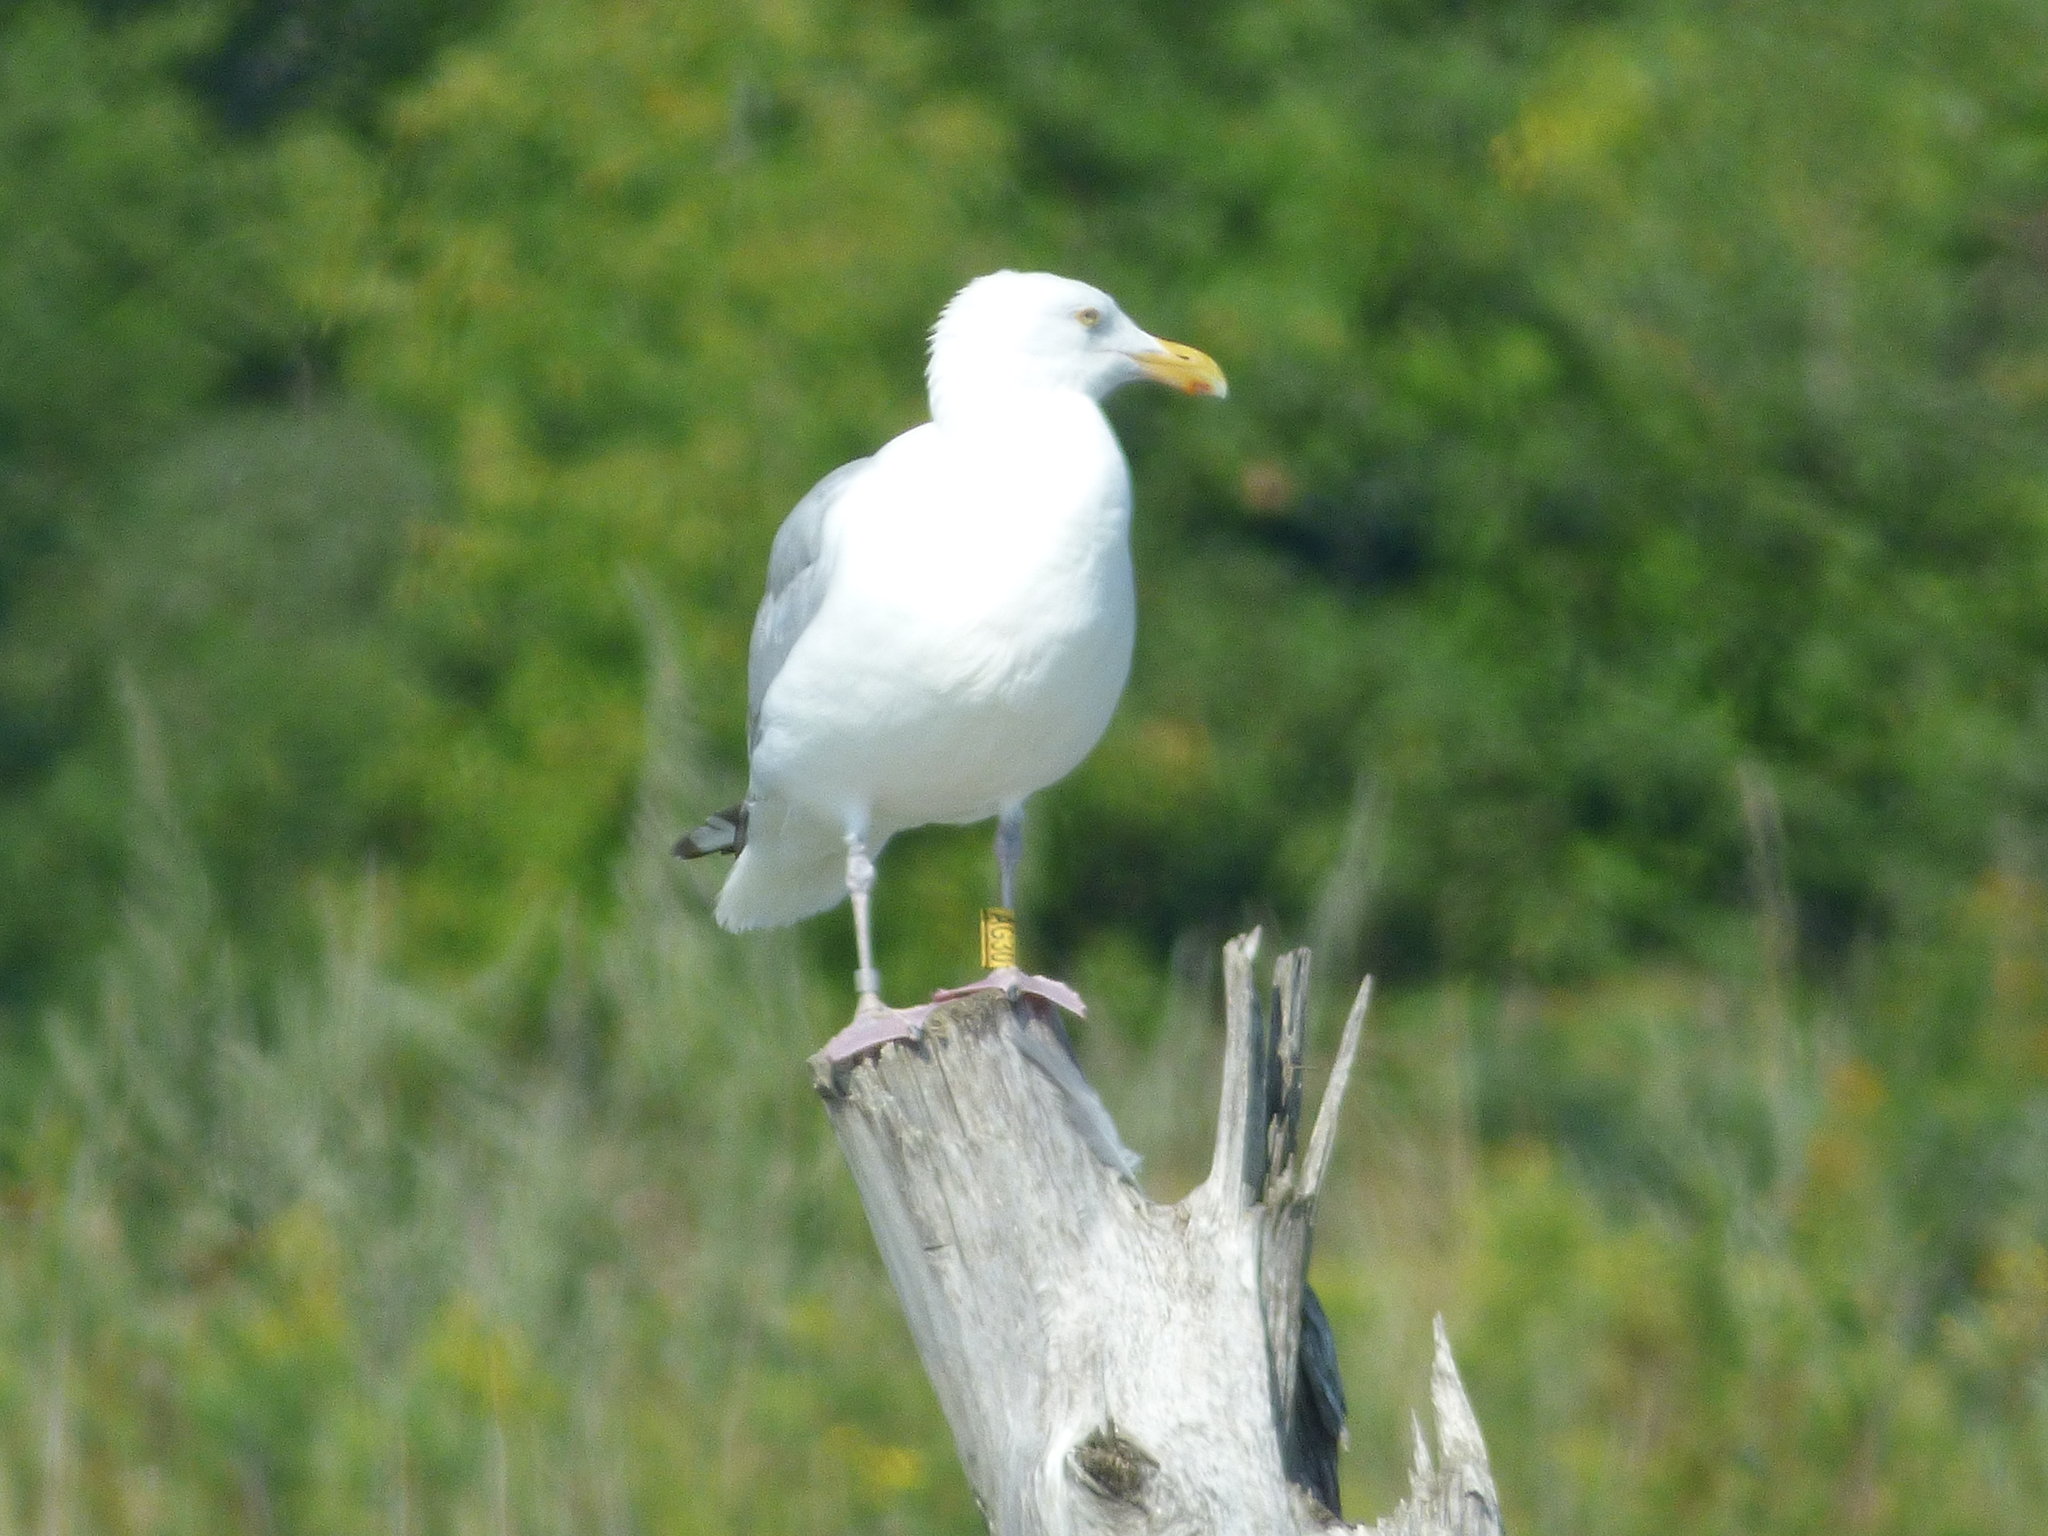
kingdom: Animalia
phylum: Chordata
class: Aves
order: Charadriiformes
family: Laridae
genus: Larus
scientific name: Larus argentatus
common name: Herring gull
